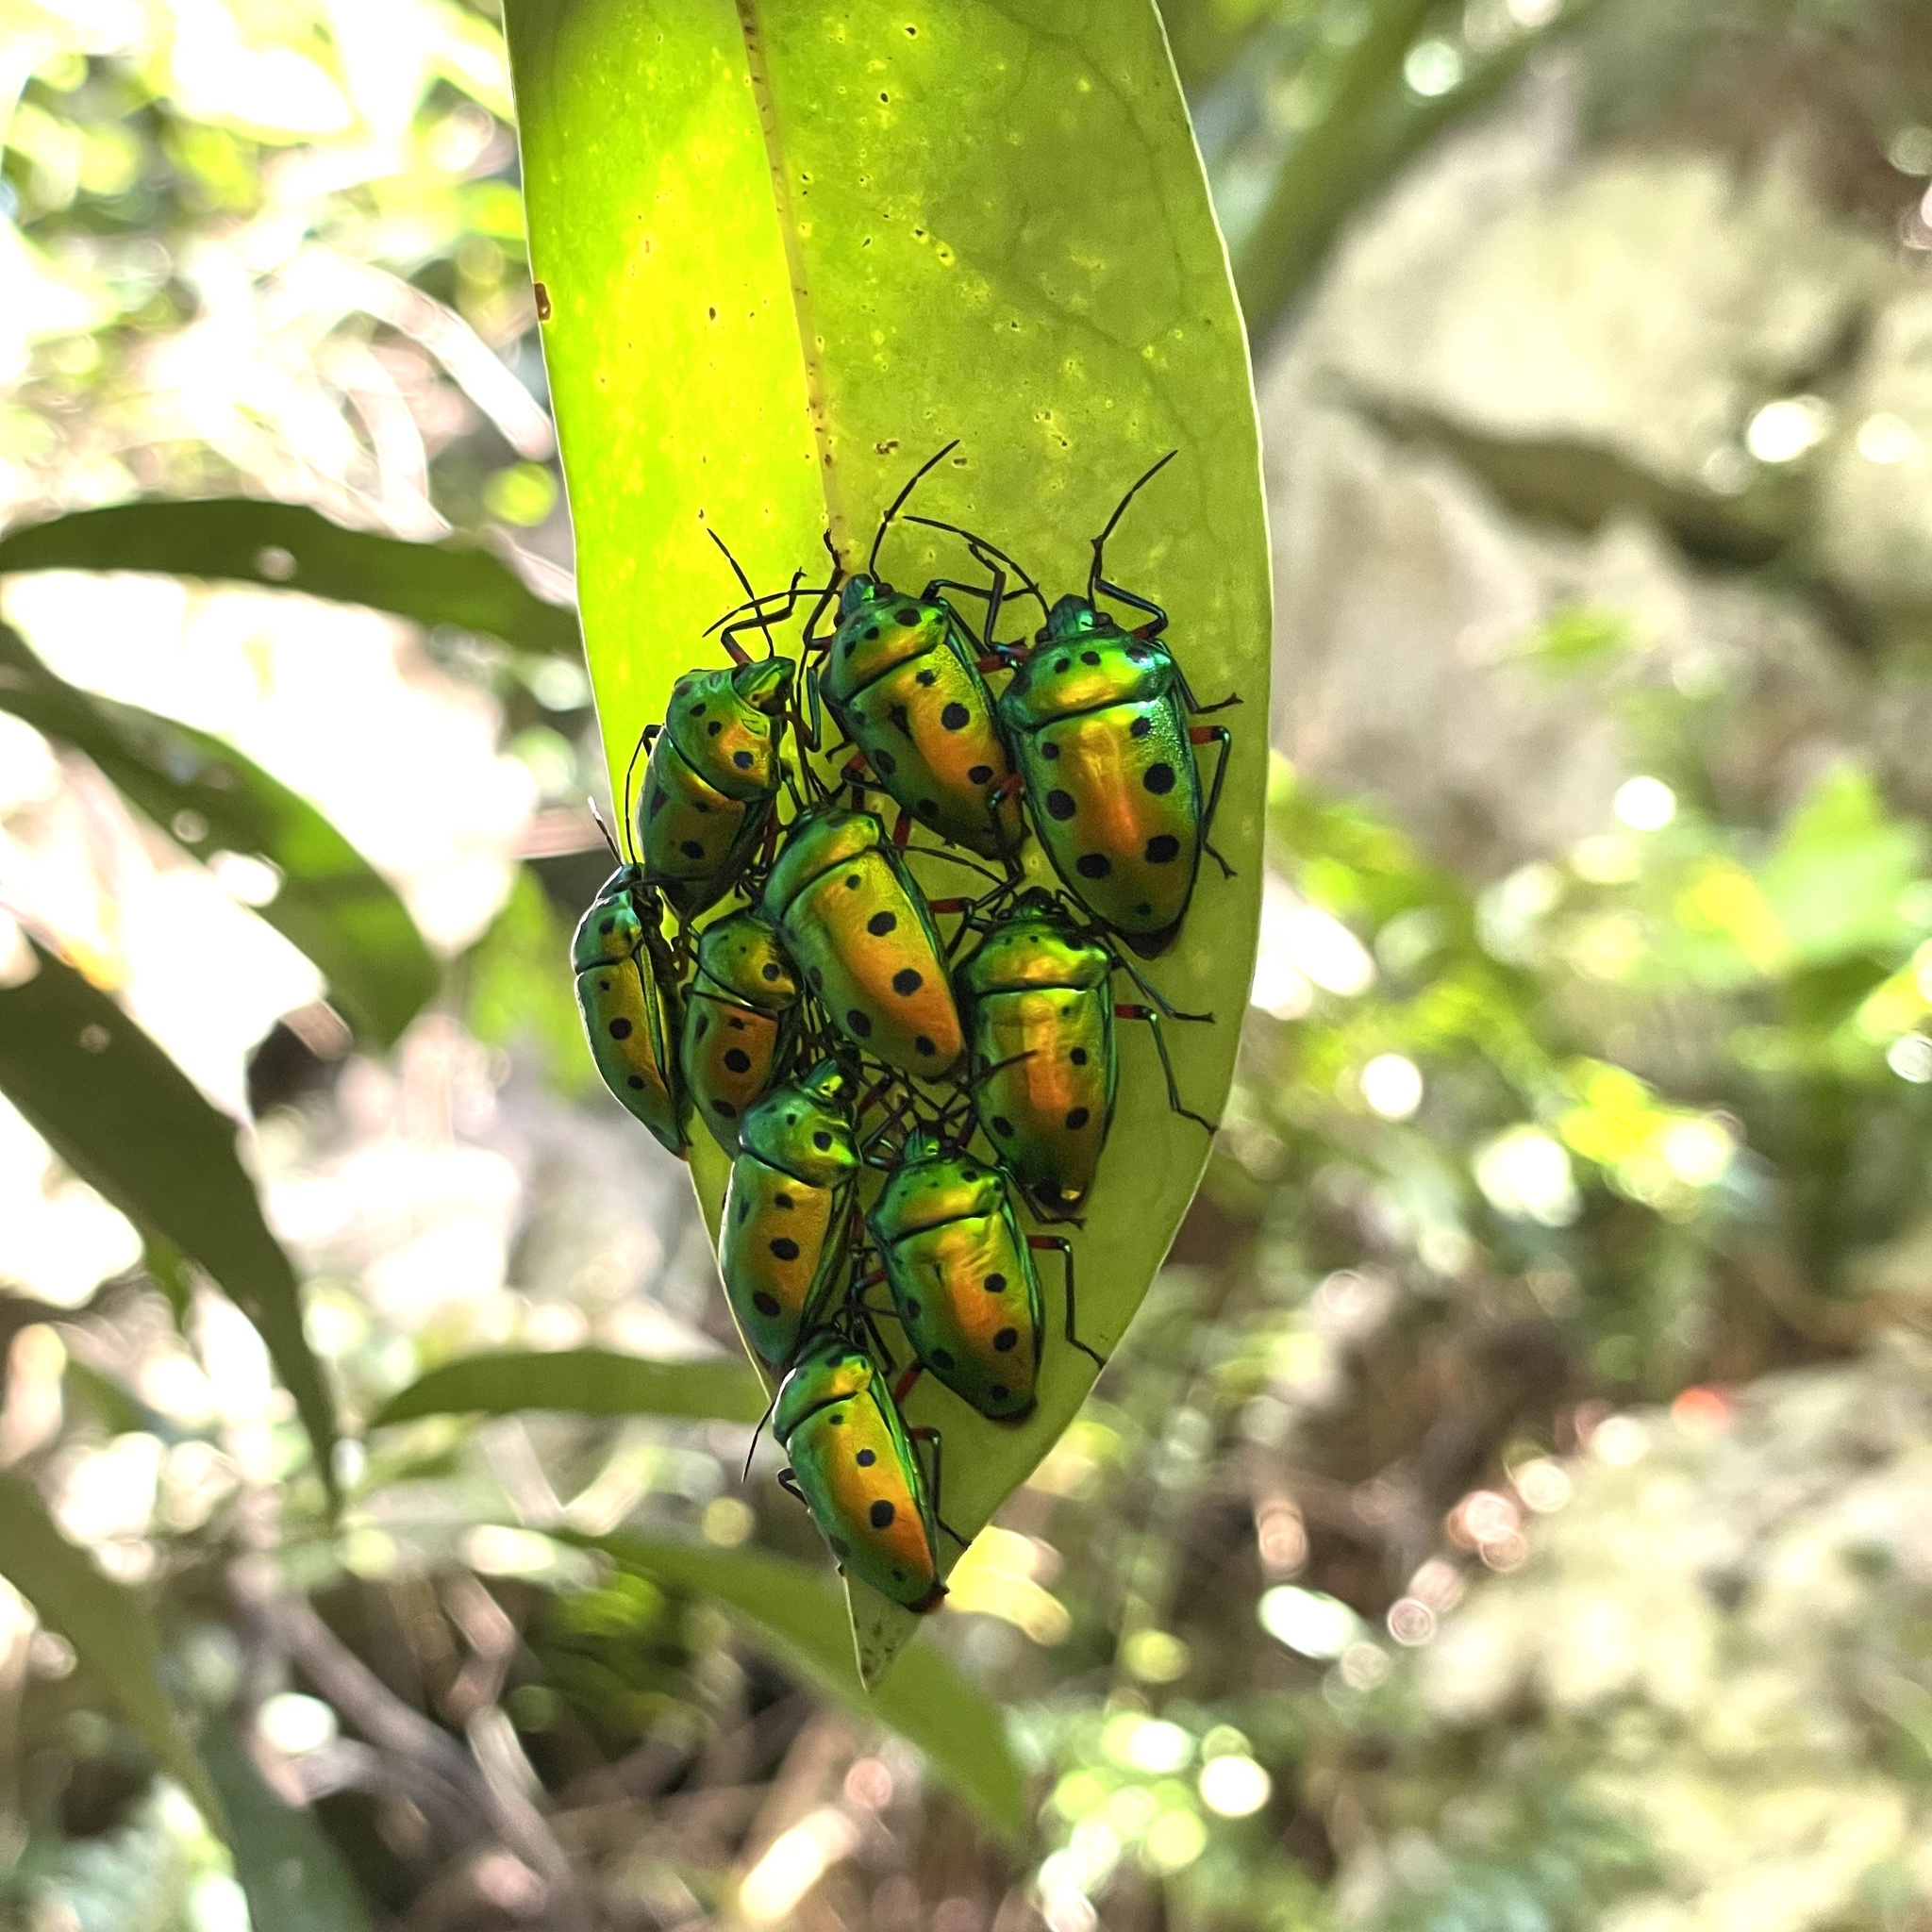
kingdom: Animalia
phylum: Arthropoda
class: Insecta
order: Hemiptera
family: Scutelleridae
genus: Calliphara
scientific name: Calliphara excellens
